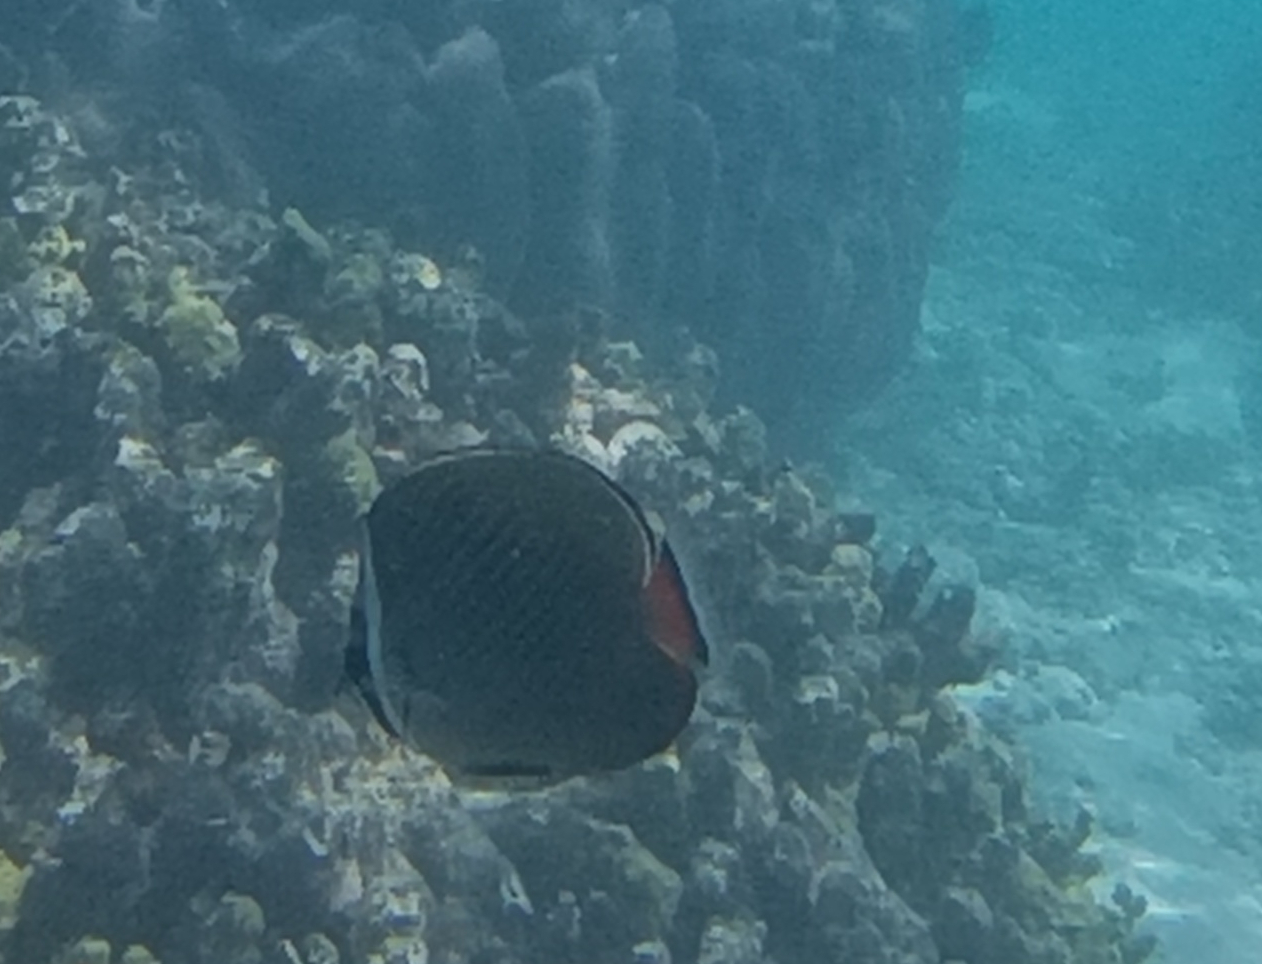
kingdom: Animalia
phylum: Chordata
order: Perciformes
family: Chaetodontidae
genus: Chaetodon
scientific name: Chaetodon collare
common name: Redtail butterflyfish
